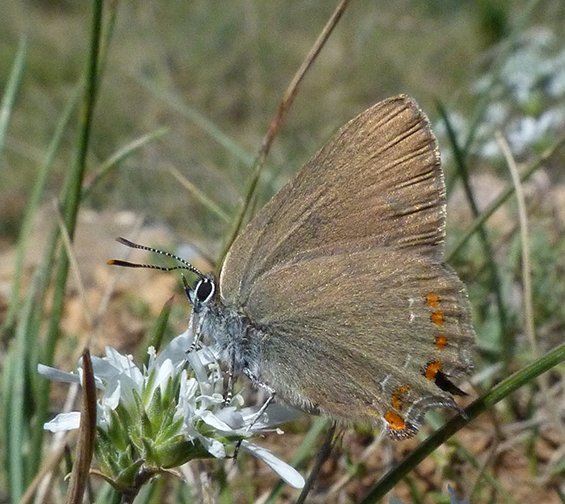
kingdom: Animalia
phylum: Arthropoda
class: Insecta
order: Lepidoptera
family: Lycaenidae
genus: Fixsenia
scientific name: Fixsenia esculi
